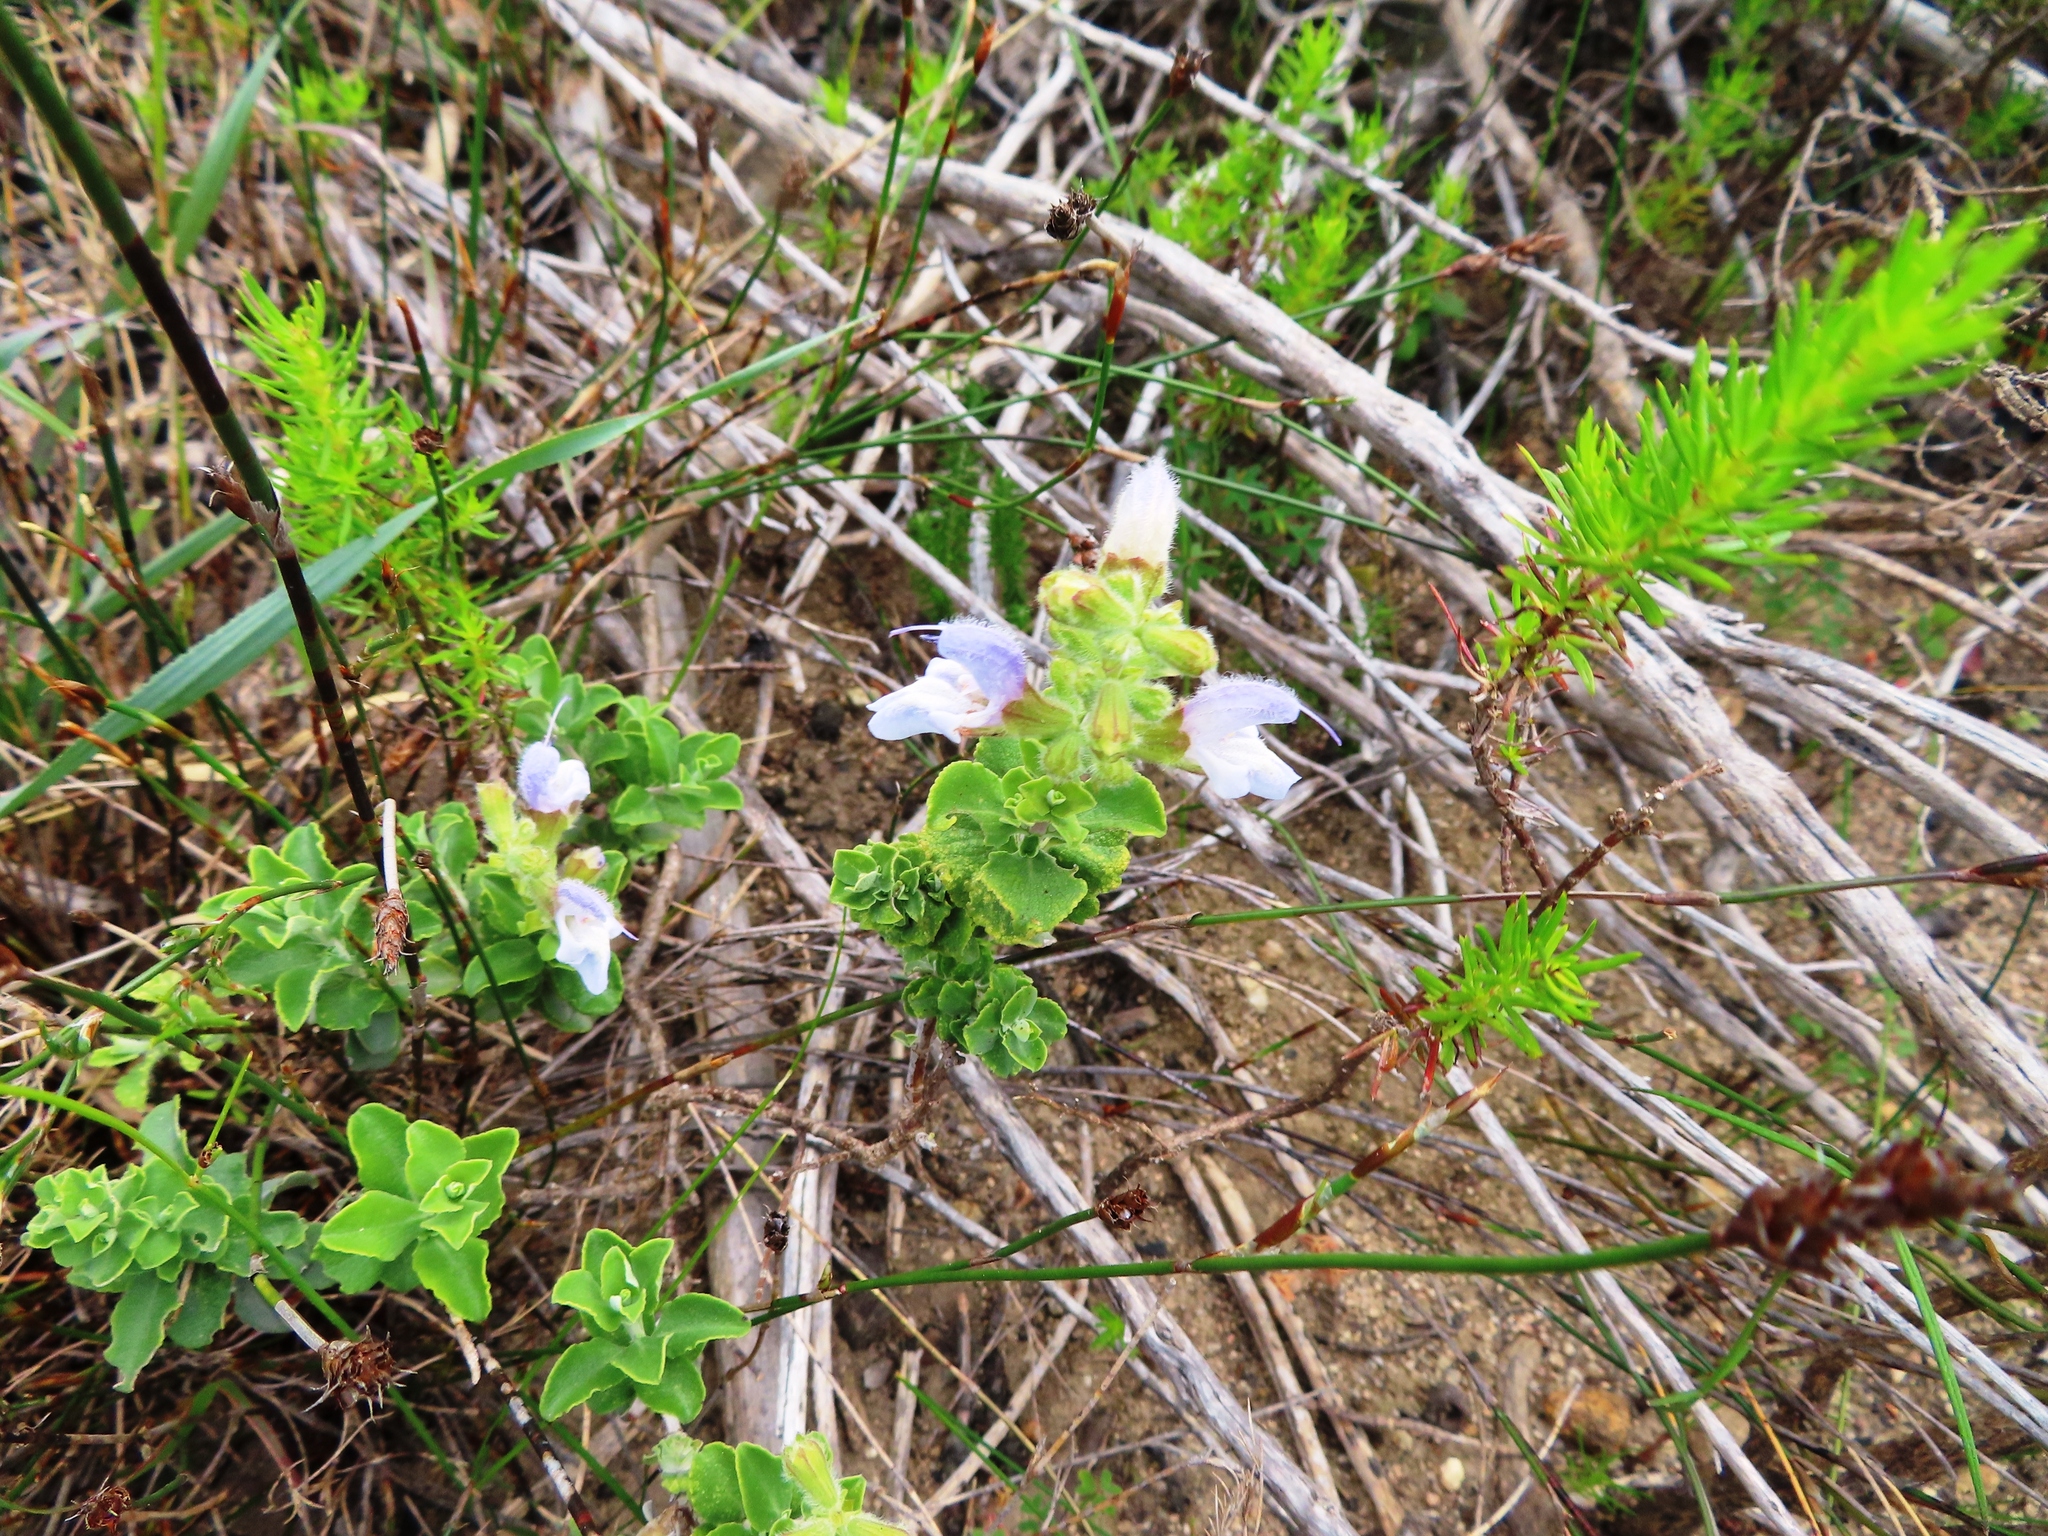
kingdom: Plantae
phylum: Tracheophyta
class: Magnoliopsida
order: Lamiales
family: Lamiaceae
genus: Salvia
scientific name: Salvia africana
